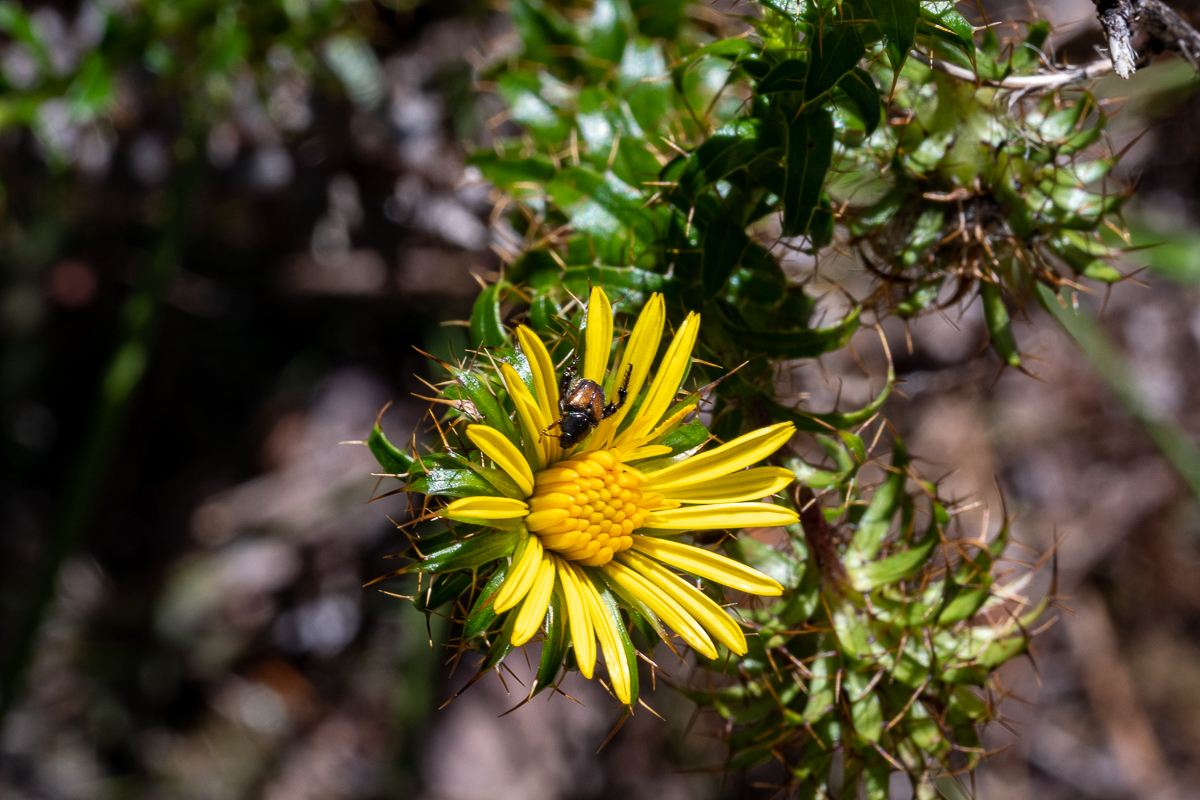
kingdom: Plantae
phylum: Tracheophyta
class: Magnoliopsida
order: Asterales
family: Asteraceae
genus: Cullumia
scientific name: Cullumia setosa
